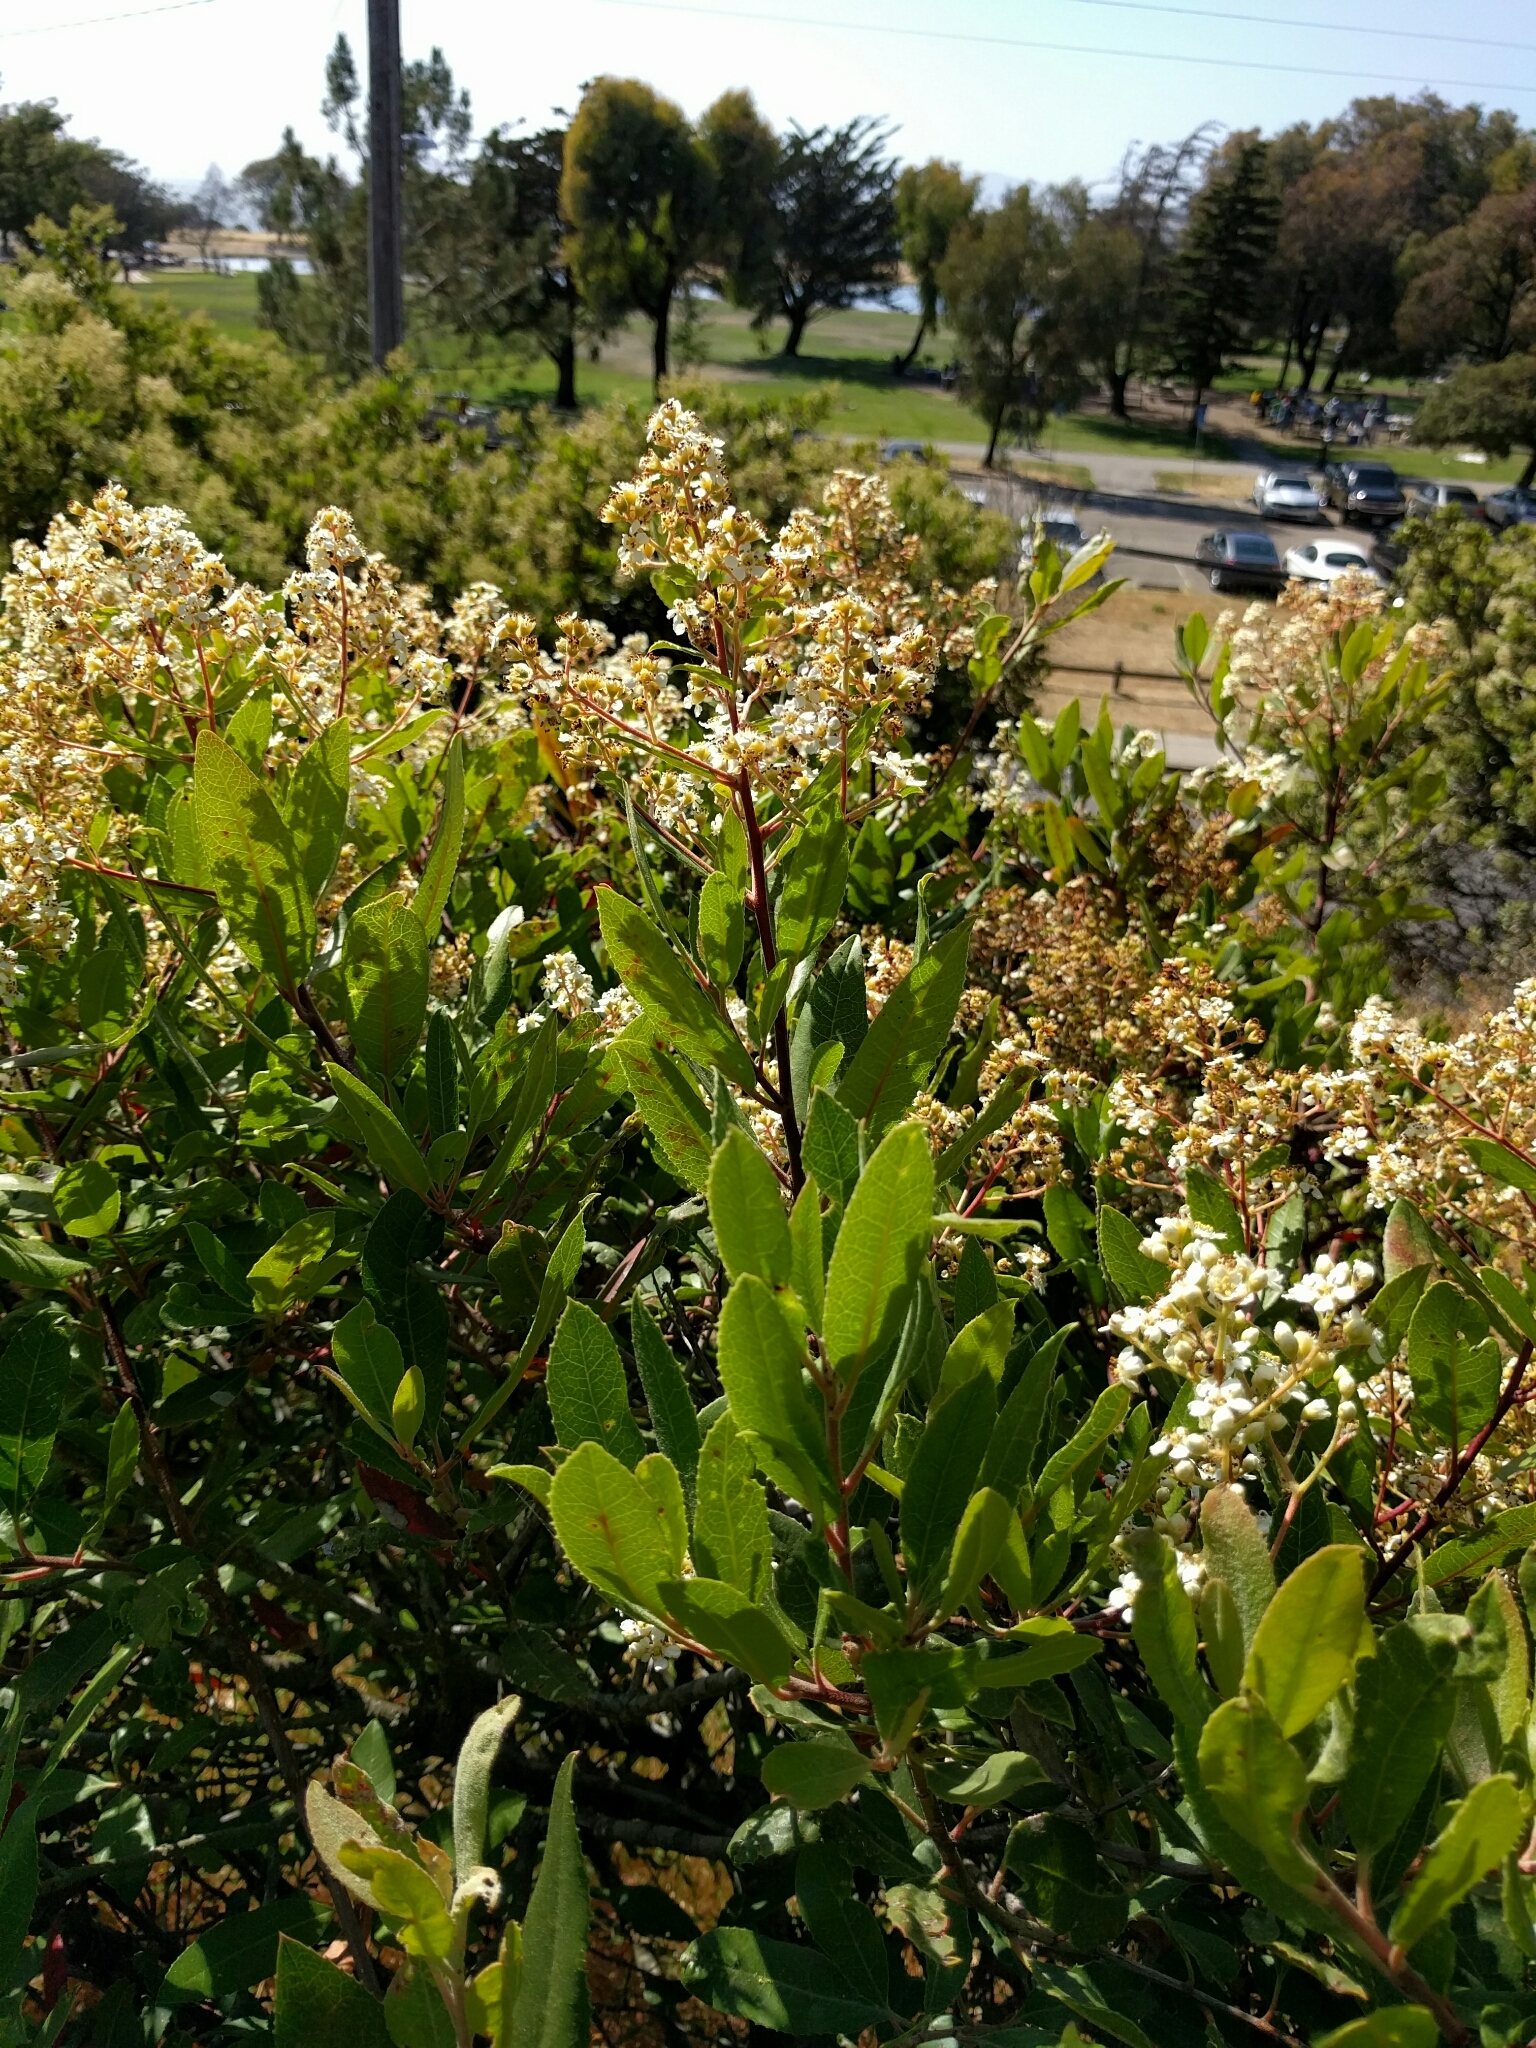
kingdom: Plantae
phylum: Tracheophyta
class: Magnoliopsida
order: Rosales
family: Rosaceae
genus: Heteromeles
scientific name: Heteromeles arbutifolia
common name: California-holly
